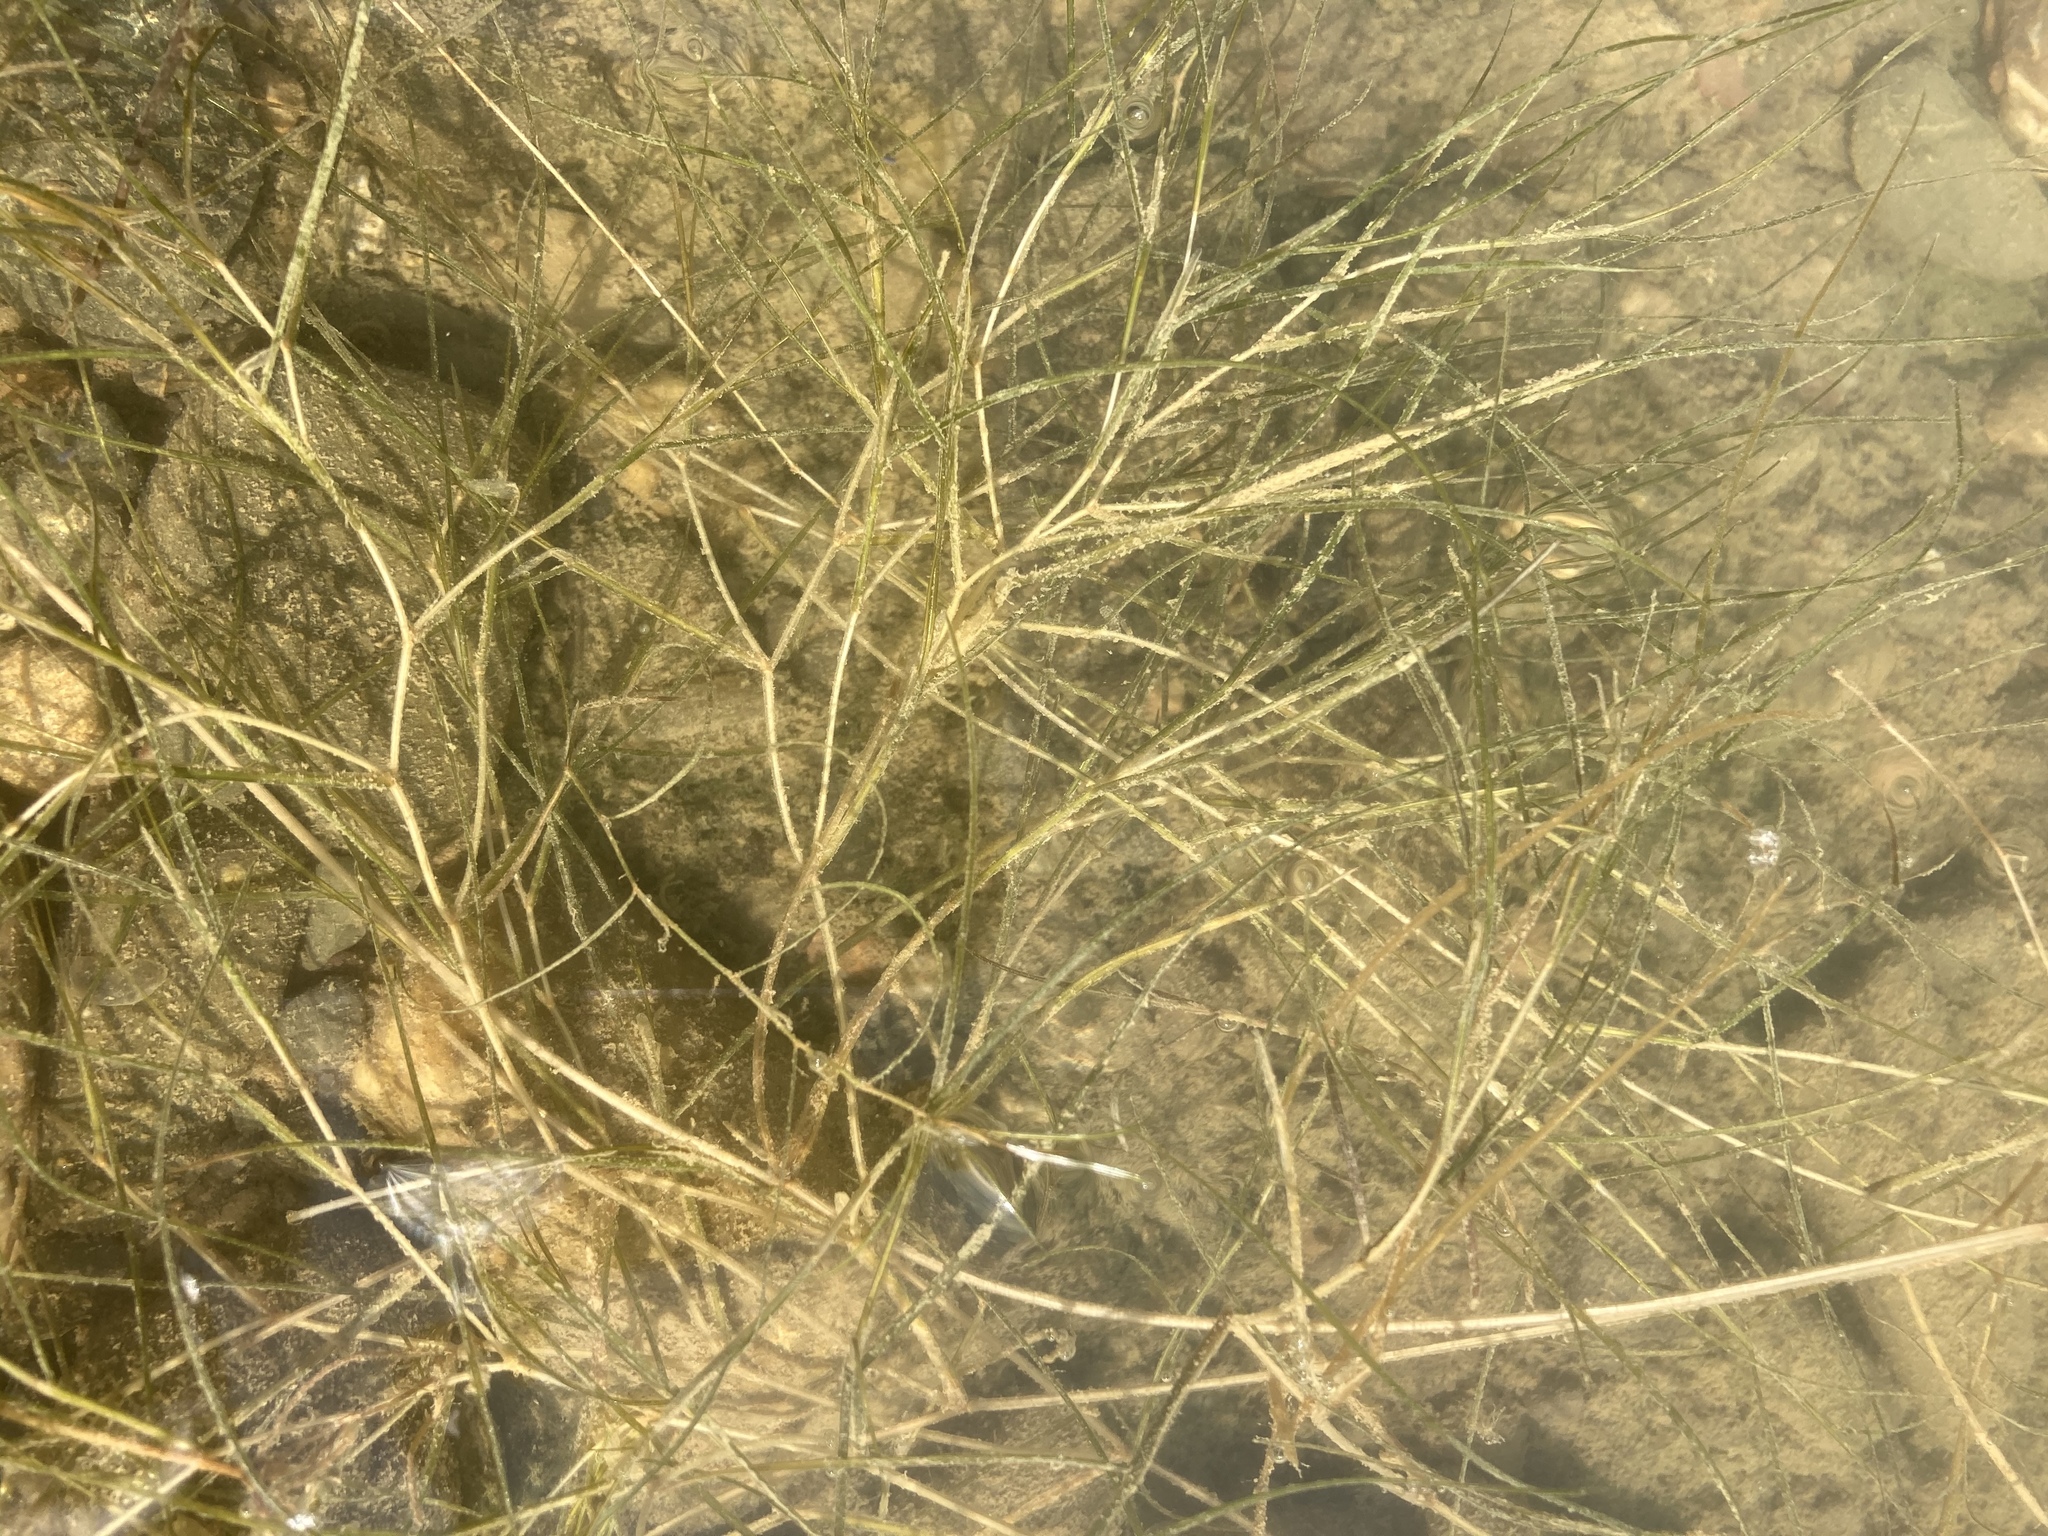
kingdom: Plantae
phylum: Tracheophyta
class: Liliopsida
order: Alismatales
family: Potamogetonaceae
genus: Stuckenia
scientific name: Stuckenia pectinata
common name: Sago pondweed
